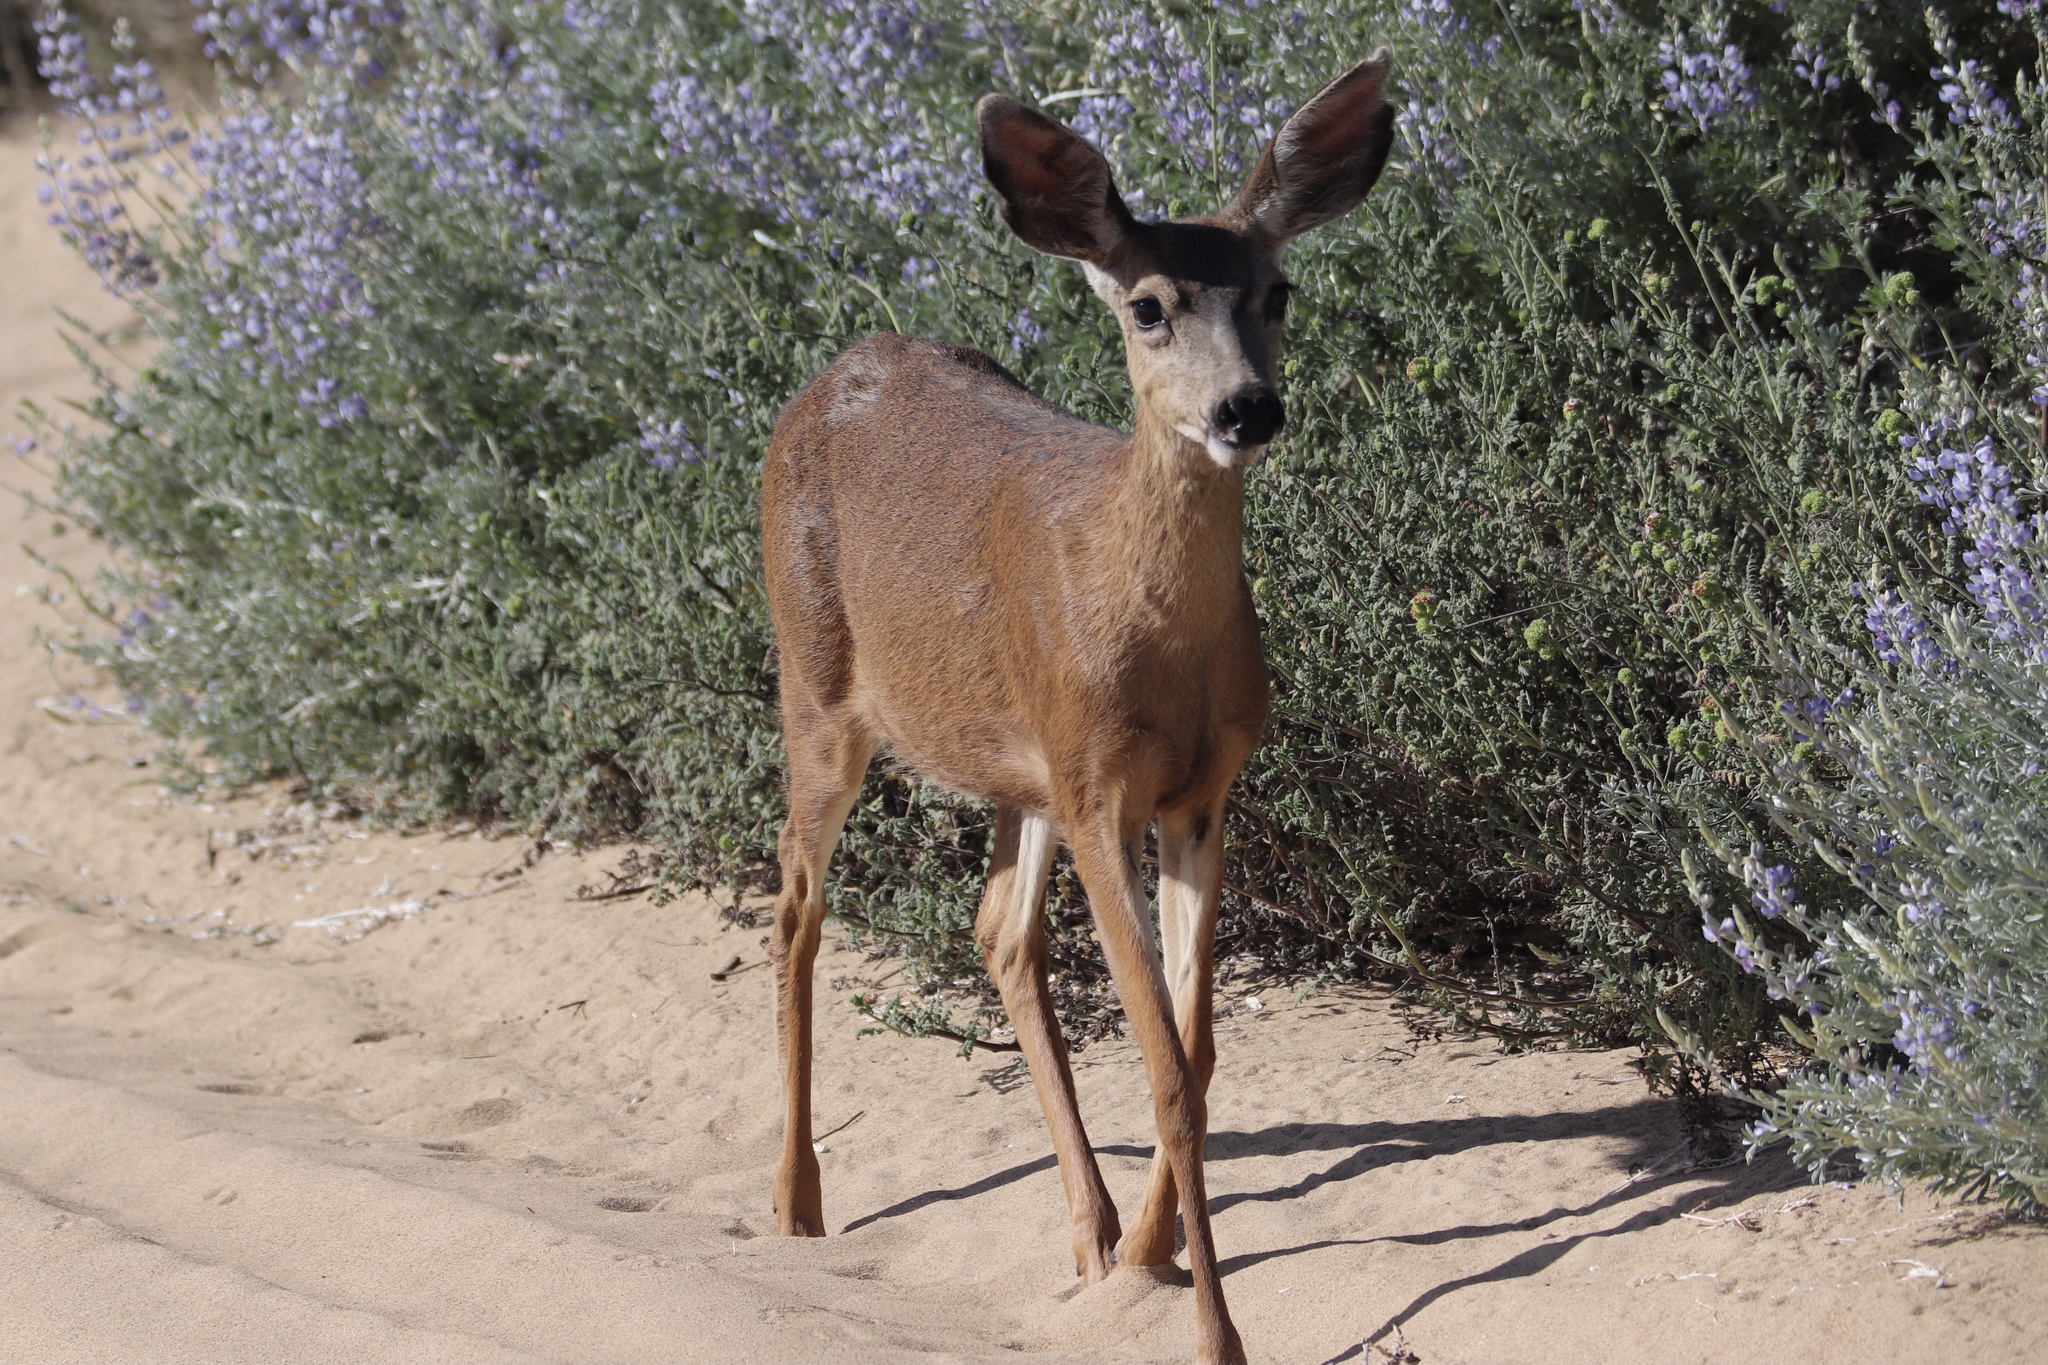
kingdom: Animalia
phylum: Chordata
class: Mammalia
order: Artiodactyla
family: Cervidae
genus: Odocoileus
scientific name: Odocoileus hemionus
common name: Mule deer
